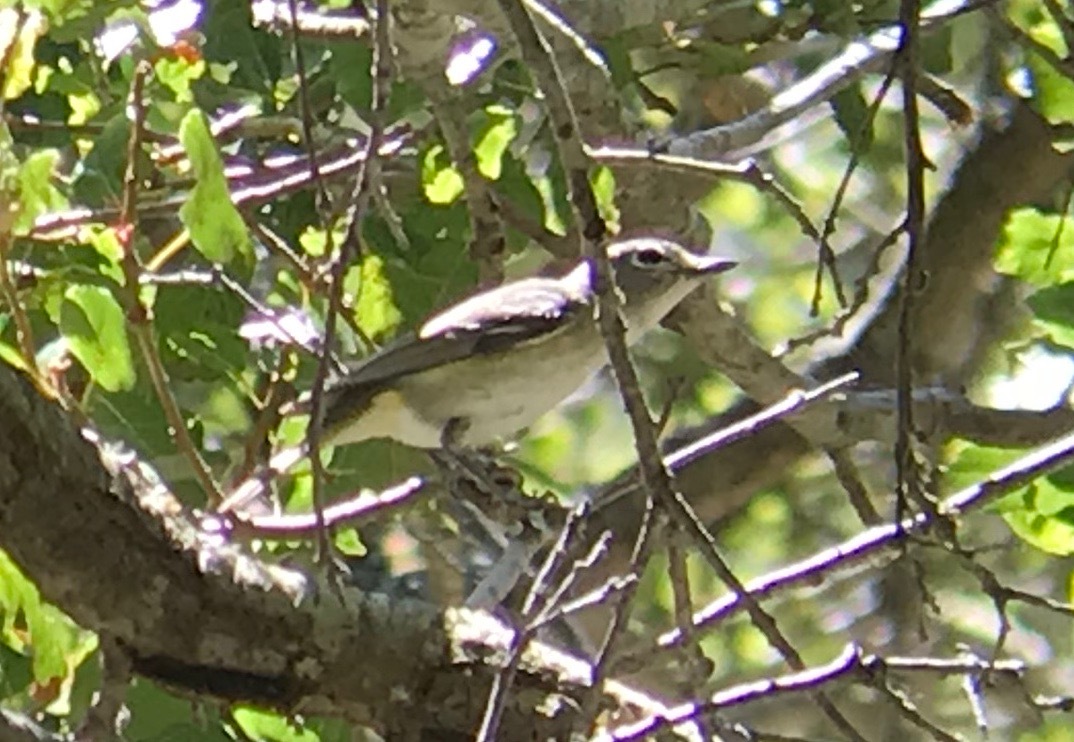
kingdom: Animalia
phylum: Chordata
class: Aves
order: Passeriformes
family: Vireonidae
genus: Vireo
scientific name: Vireo cassinii
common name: Cassin's vireo
